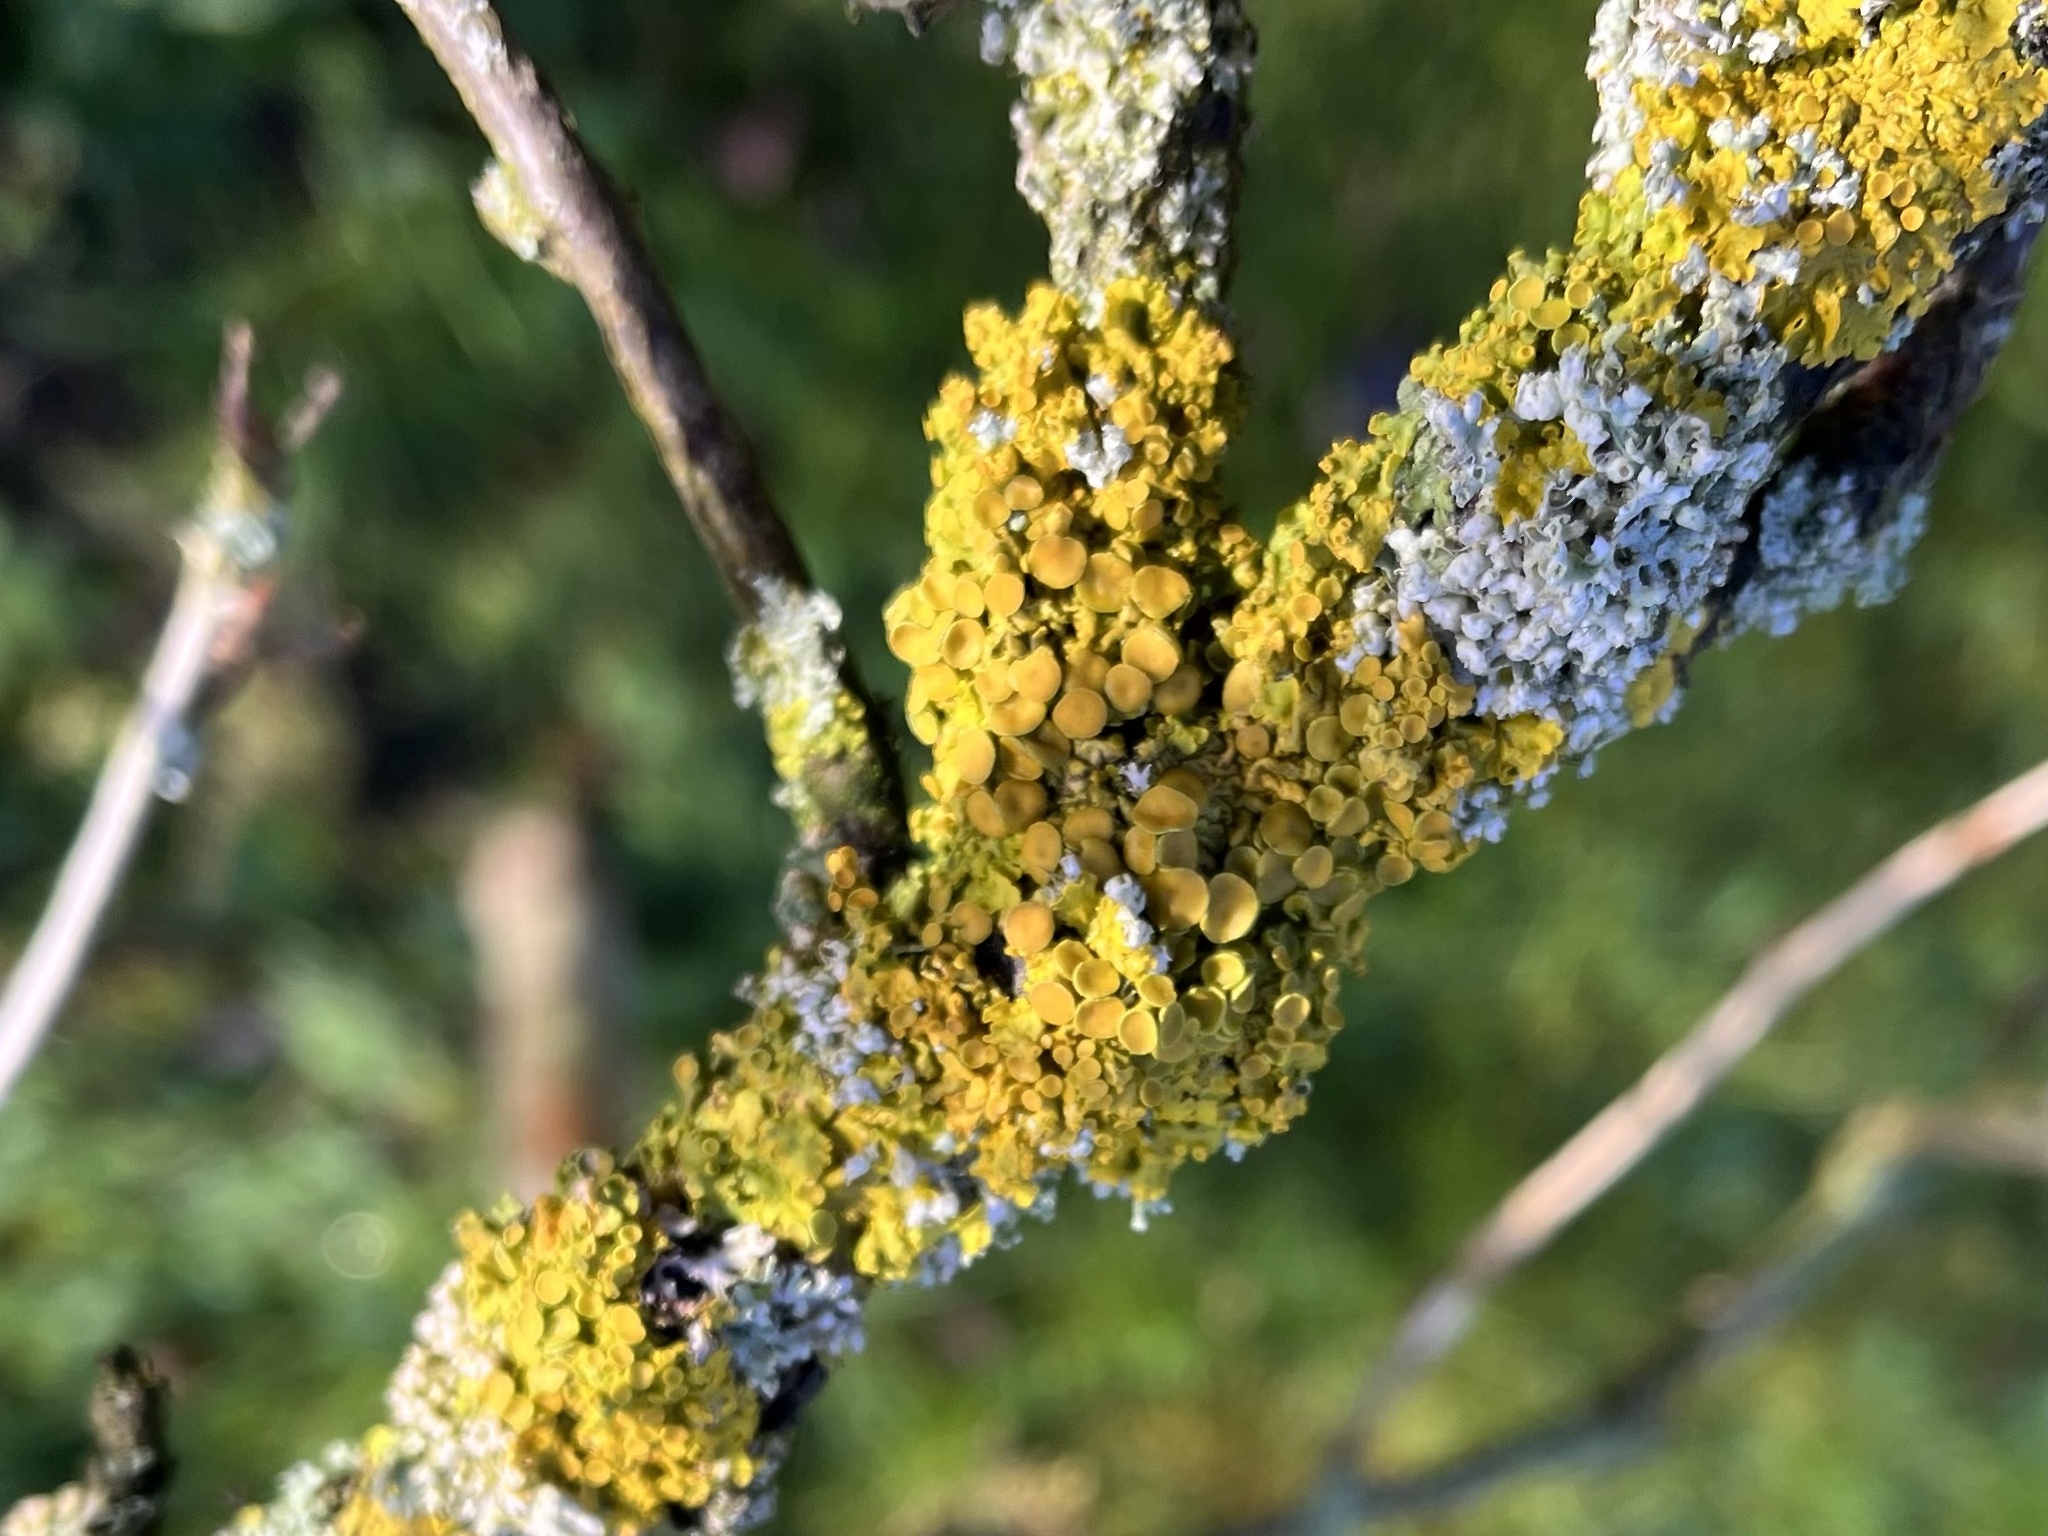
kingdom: Fungi
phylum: Ascomycota
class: Lecanoromycetes
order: Teloschistales
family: Teloschistaceae
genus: Xanthoria
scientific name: Xanthoria parietina
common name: Common orange lichen
